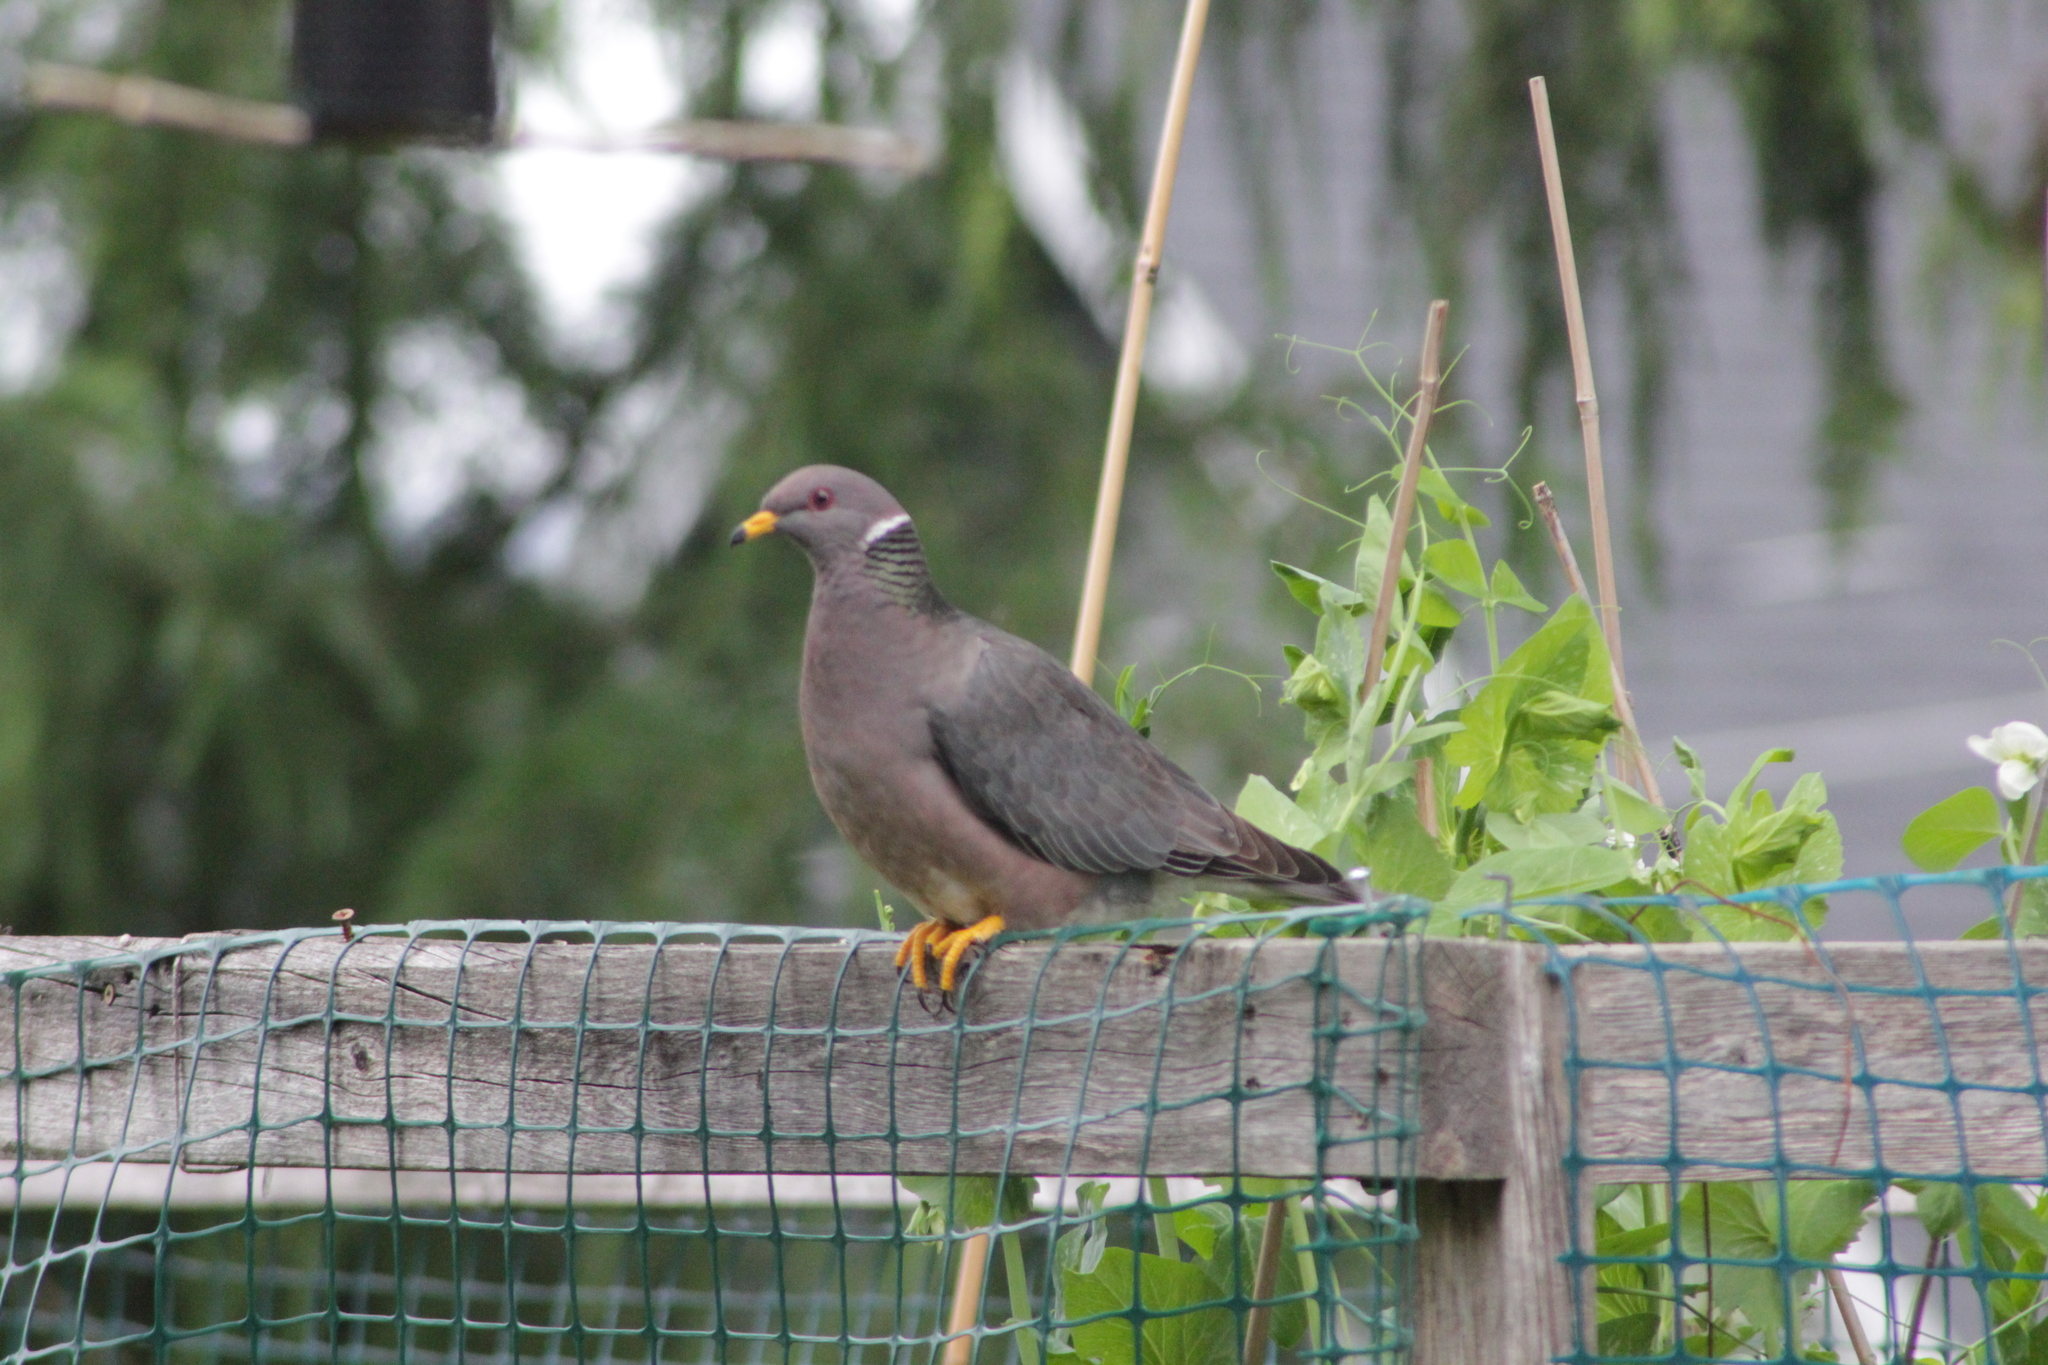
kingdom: Animalia
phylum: Chordata
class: Aves
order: Columbiformes
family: Columbidae
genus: Patagioenas
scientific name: Patagioenas fasciata
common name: Band-tailed pigeon
